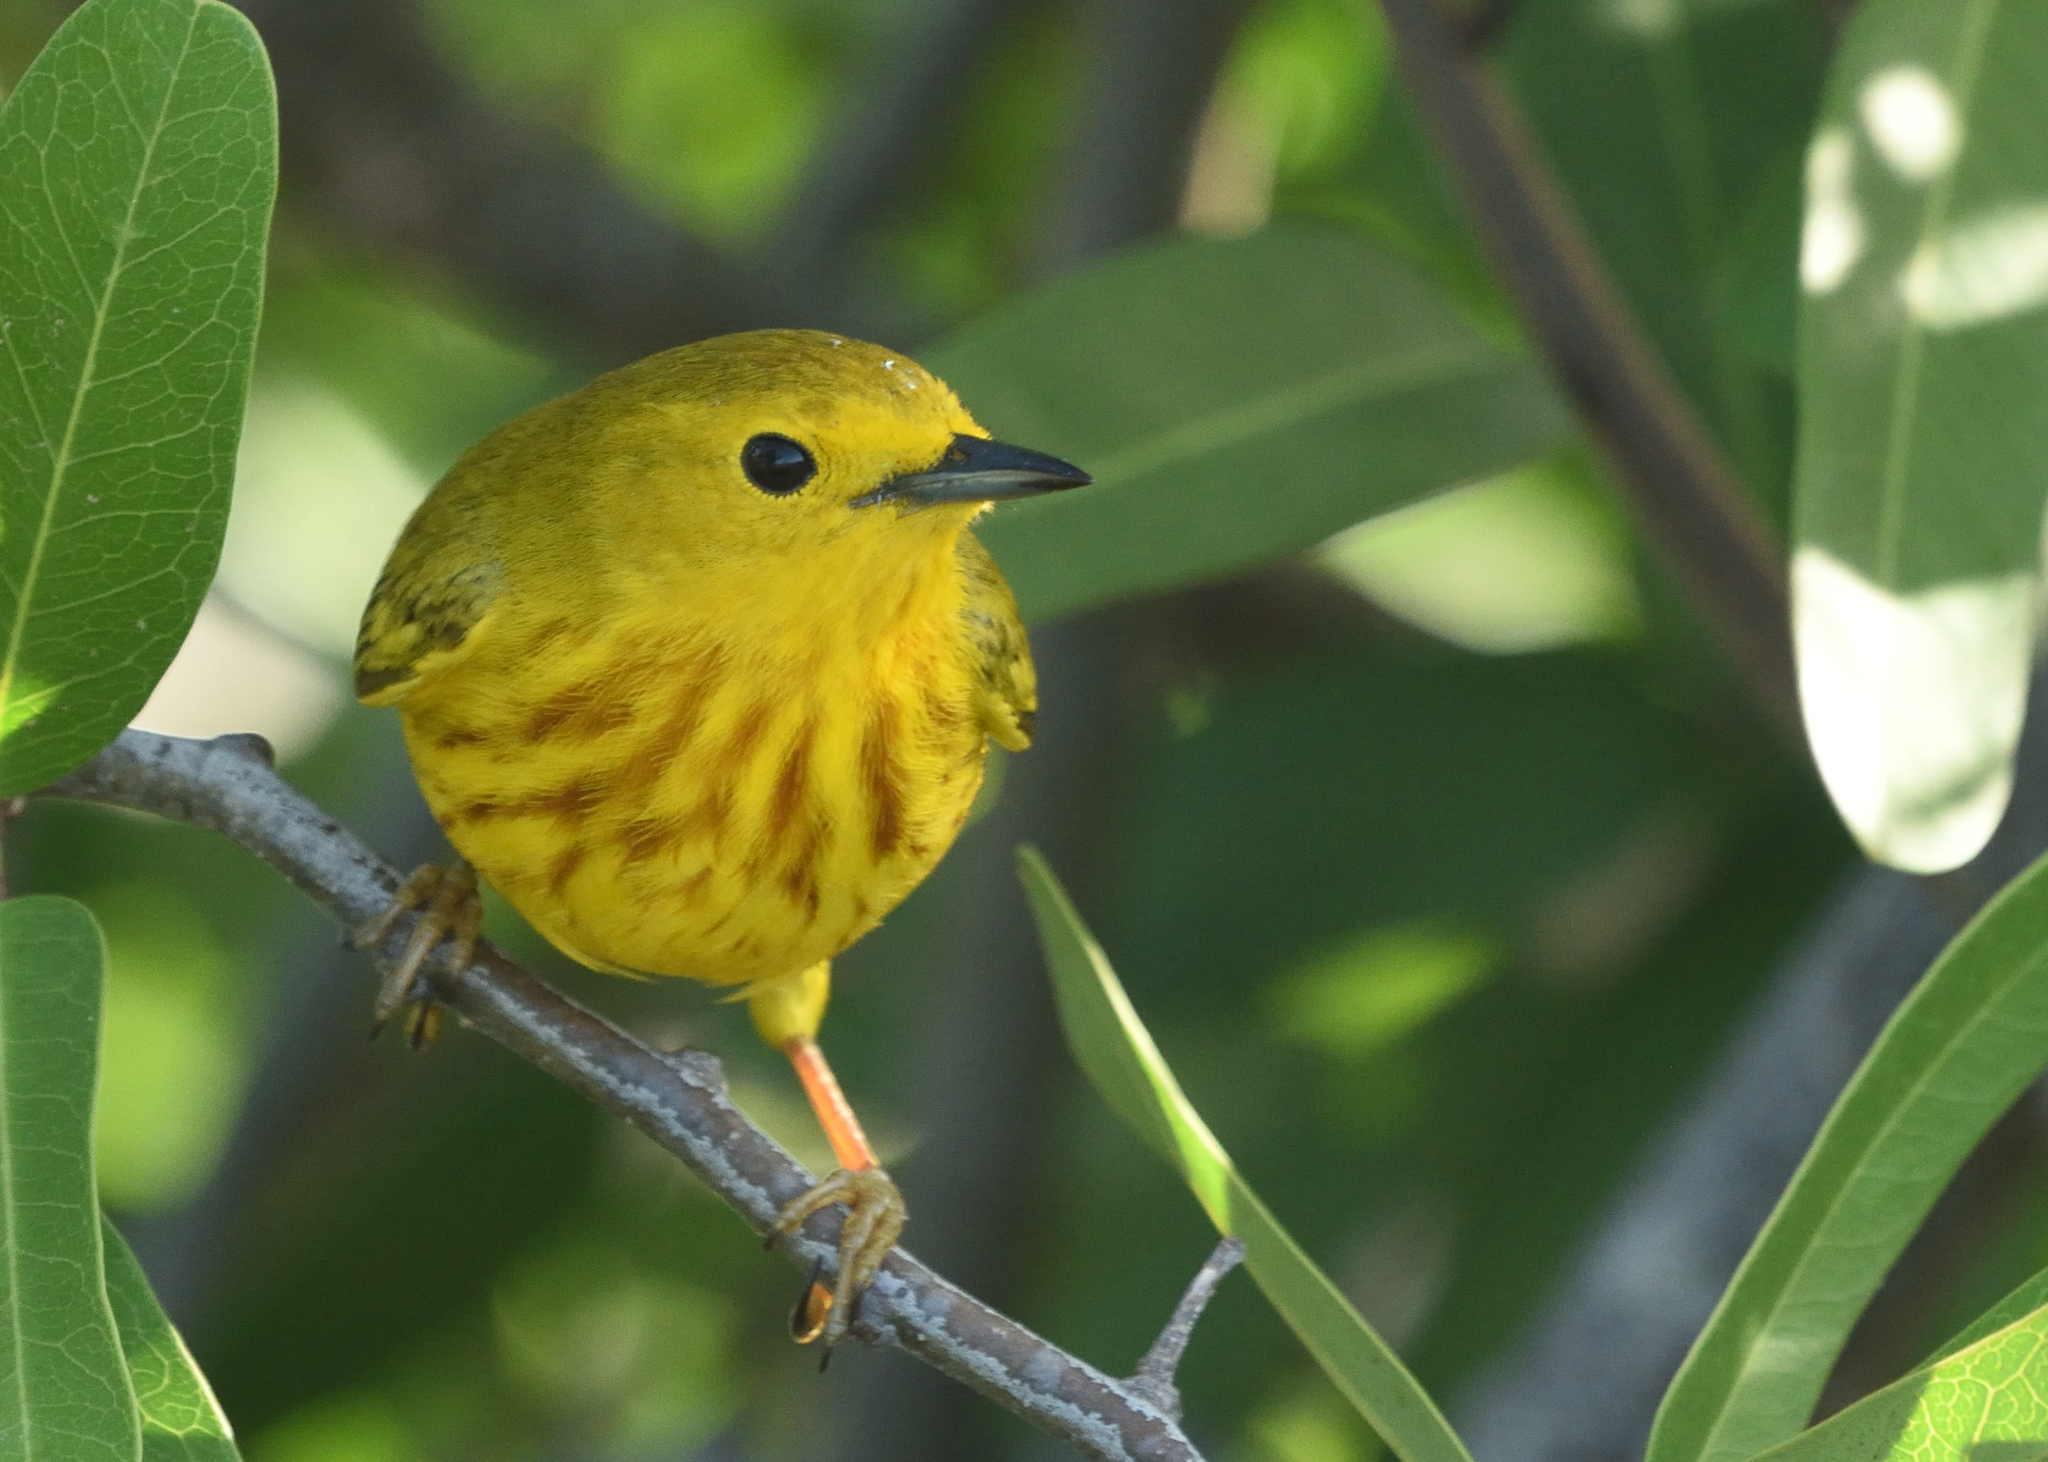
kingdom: Animalia
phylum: Chordata
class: Aves
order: Passeriformes
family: Parulidae
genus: Setophaga
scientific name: Setophaga petechia
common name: Yellow warbler
